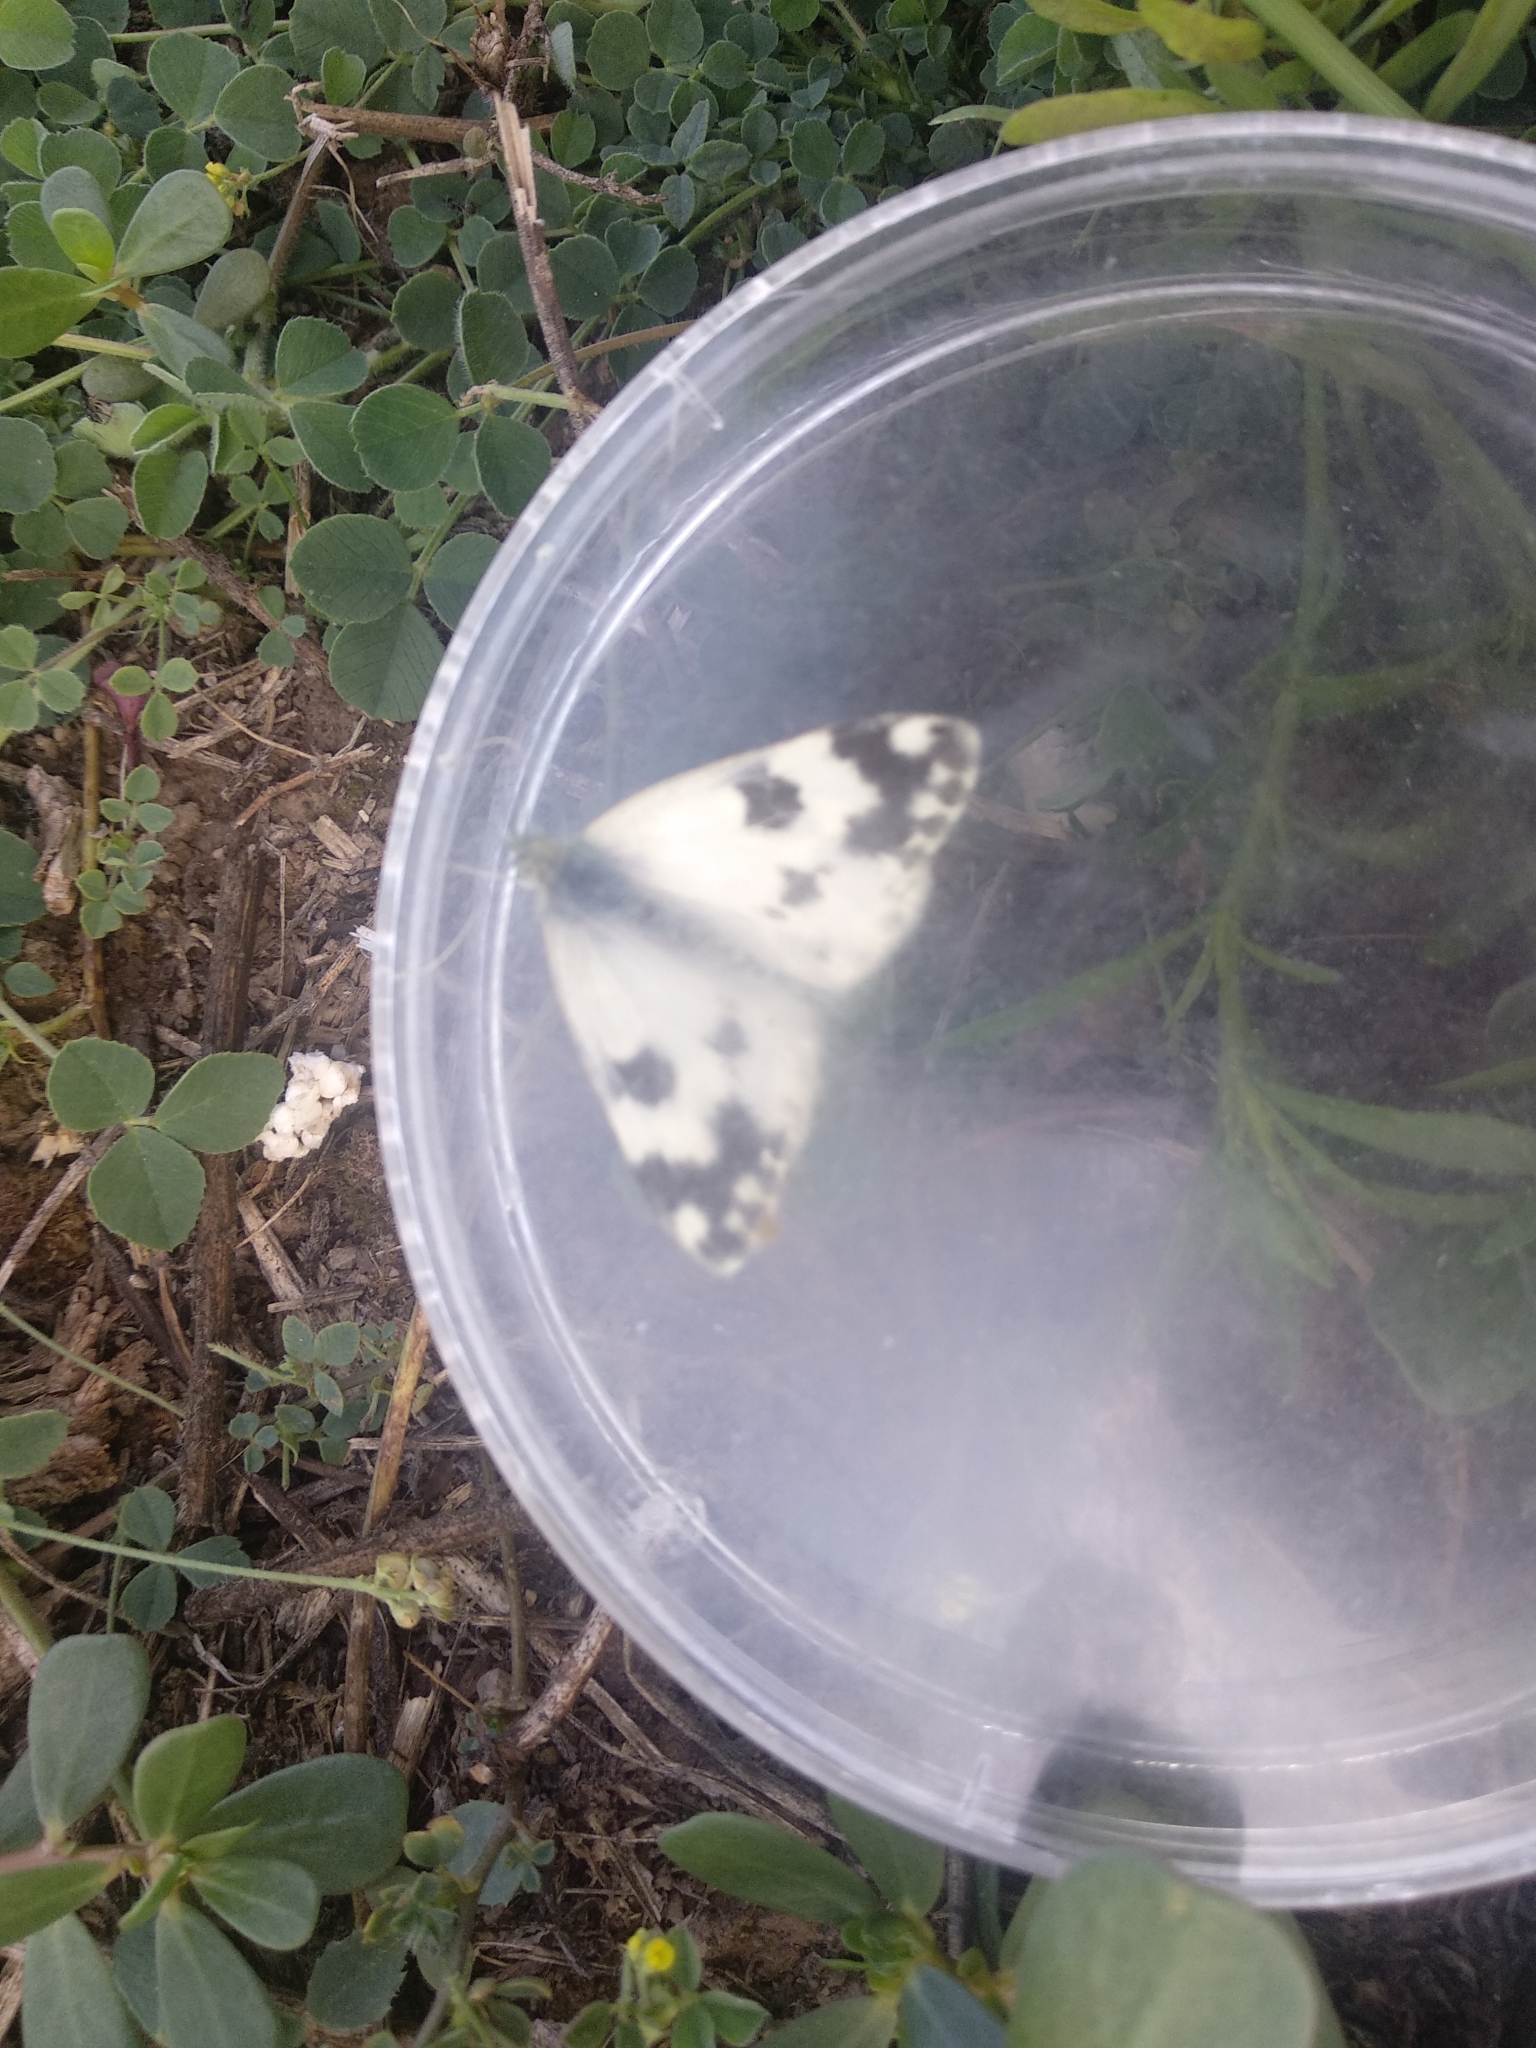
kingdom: Animalia
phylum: Arthropoda
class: Insecta
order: Lepidoptera
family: Pieridae
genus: Pontia
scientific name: Pontia daplidice
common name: Bath white
